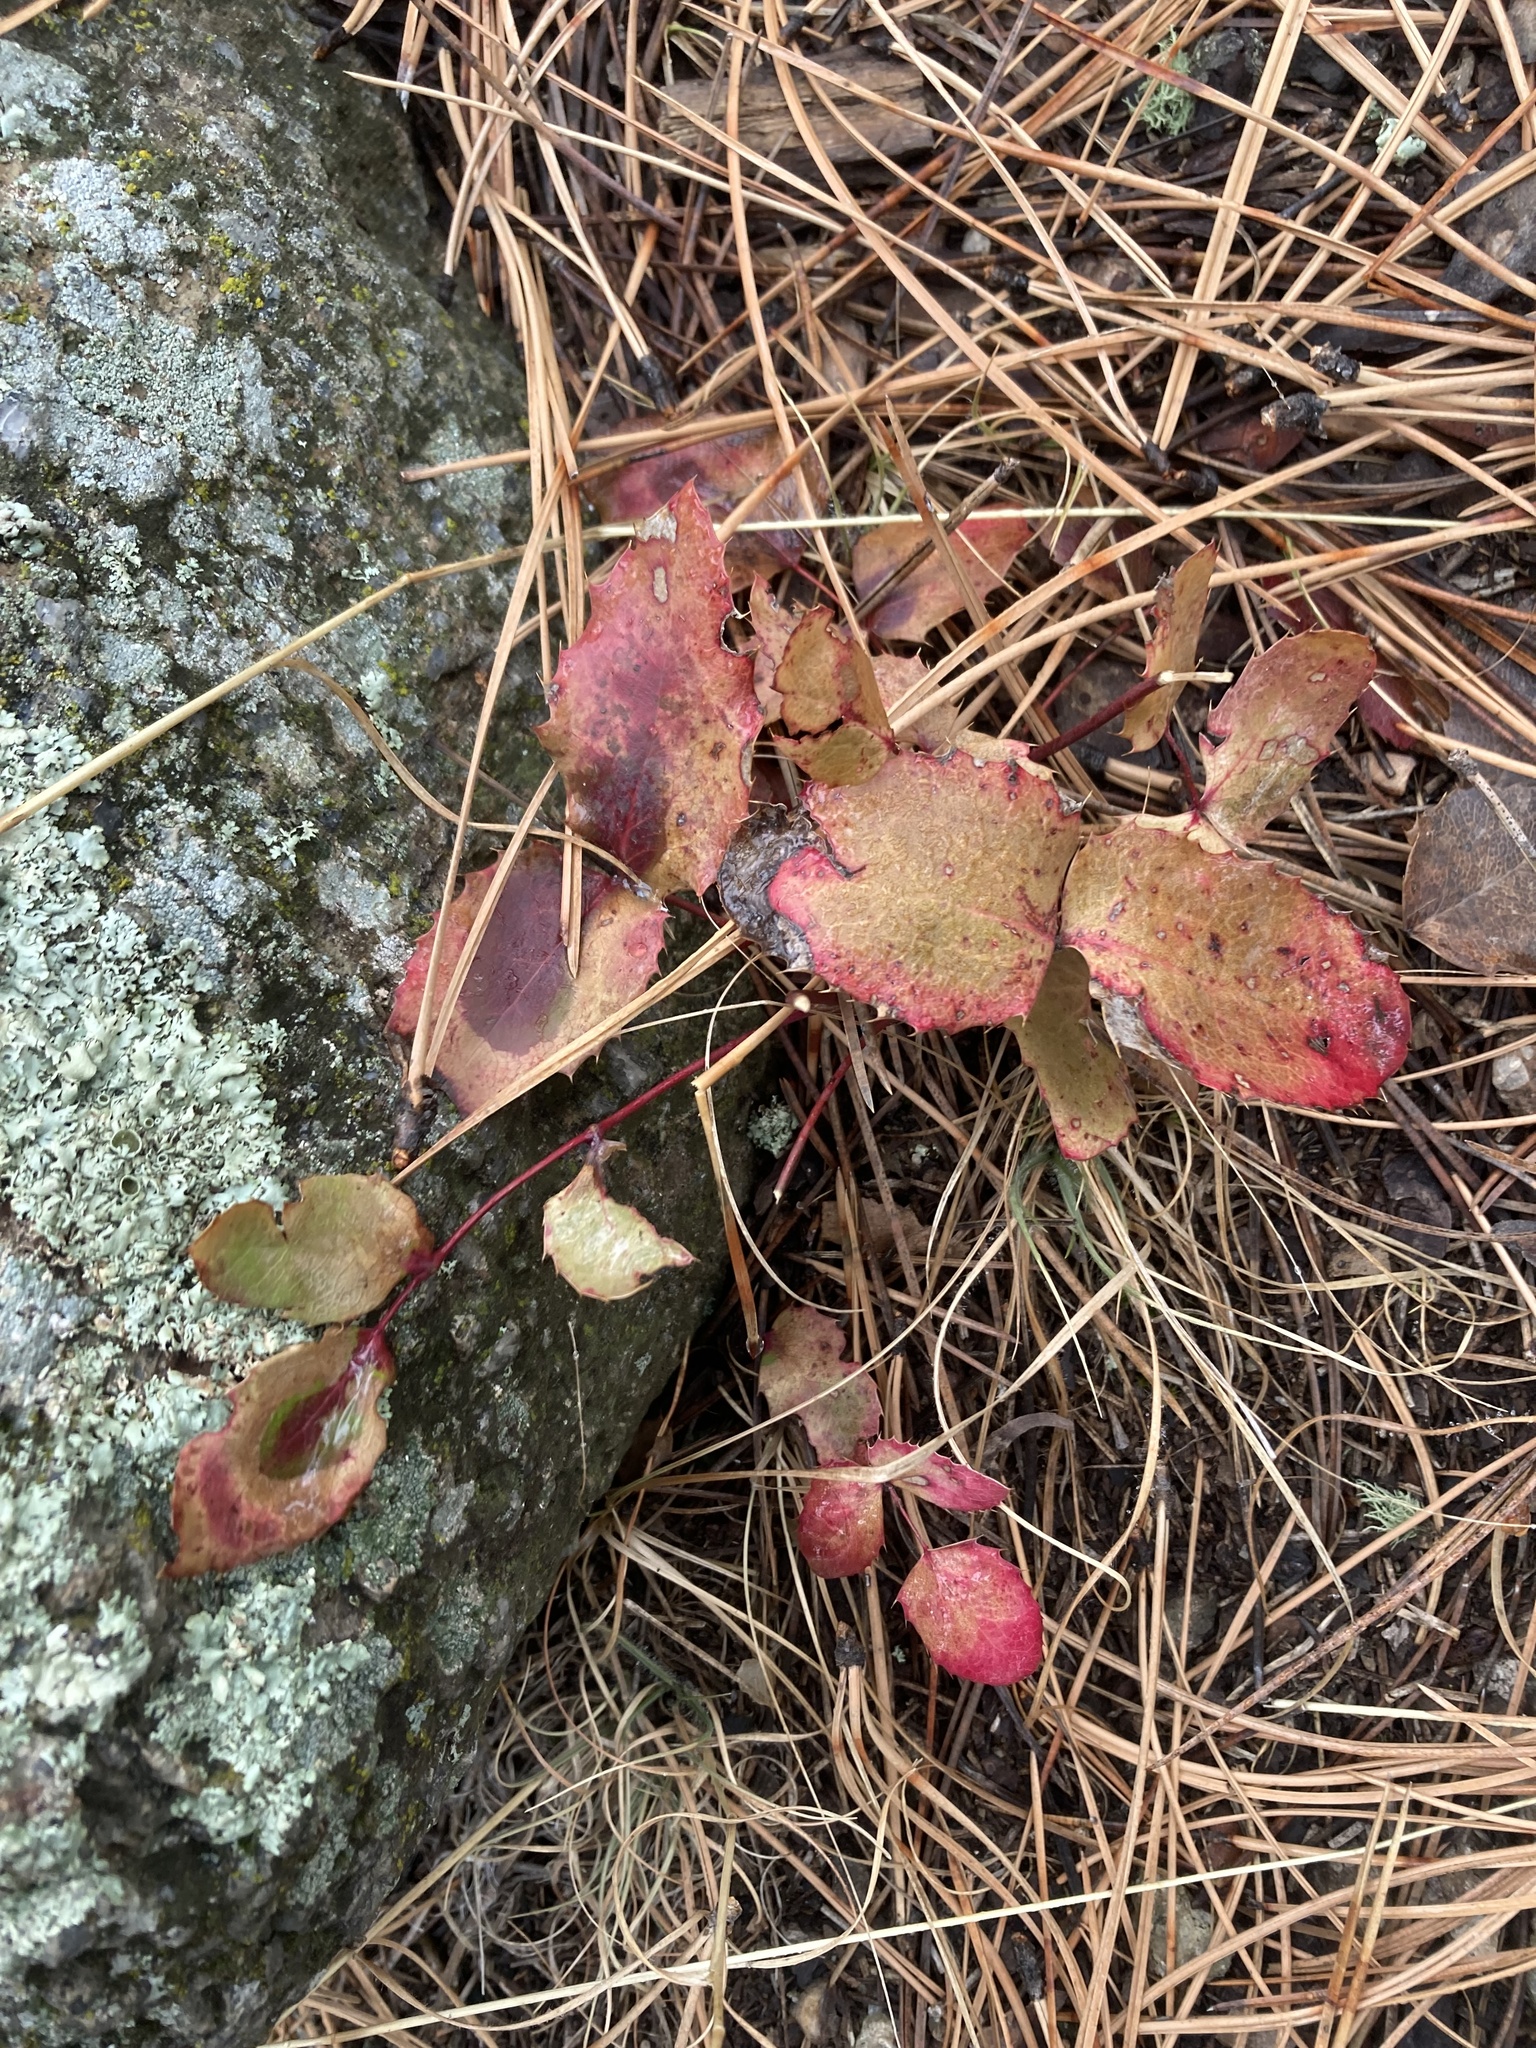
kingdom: Plantae
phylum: Tracheophyta
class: Magnoliopsida
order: Ranunculales
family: Berberidaceae
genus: Mahonia
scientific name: Mahonia repens
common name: Creeping oregon-grape
